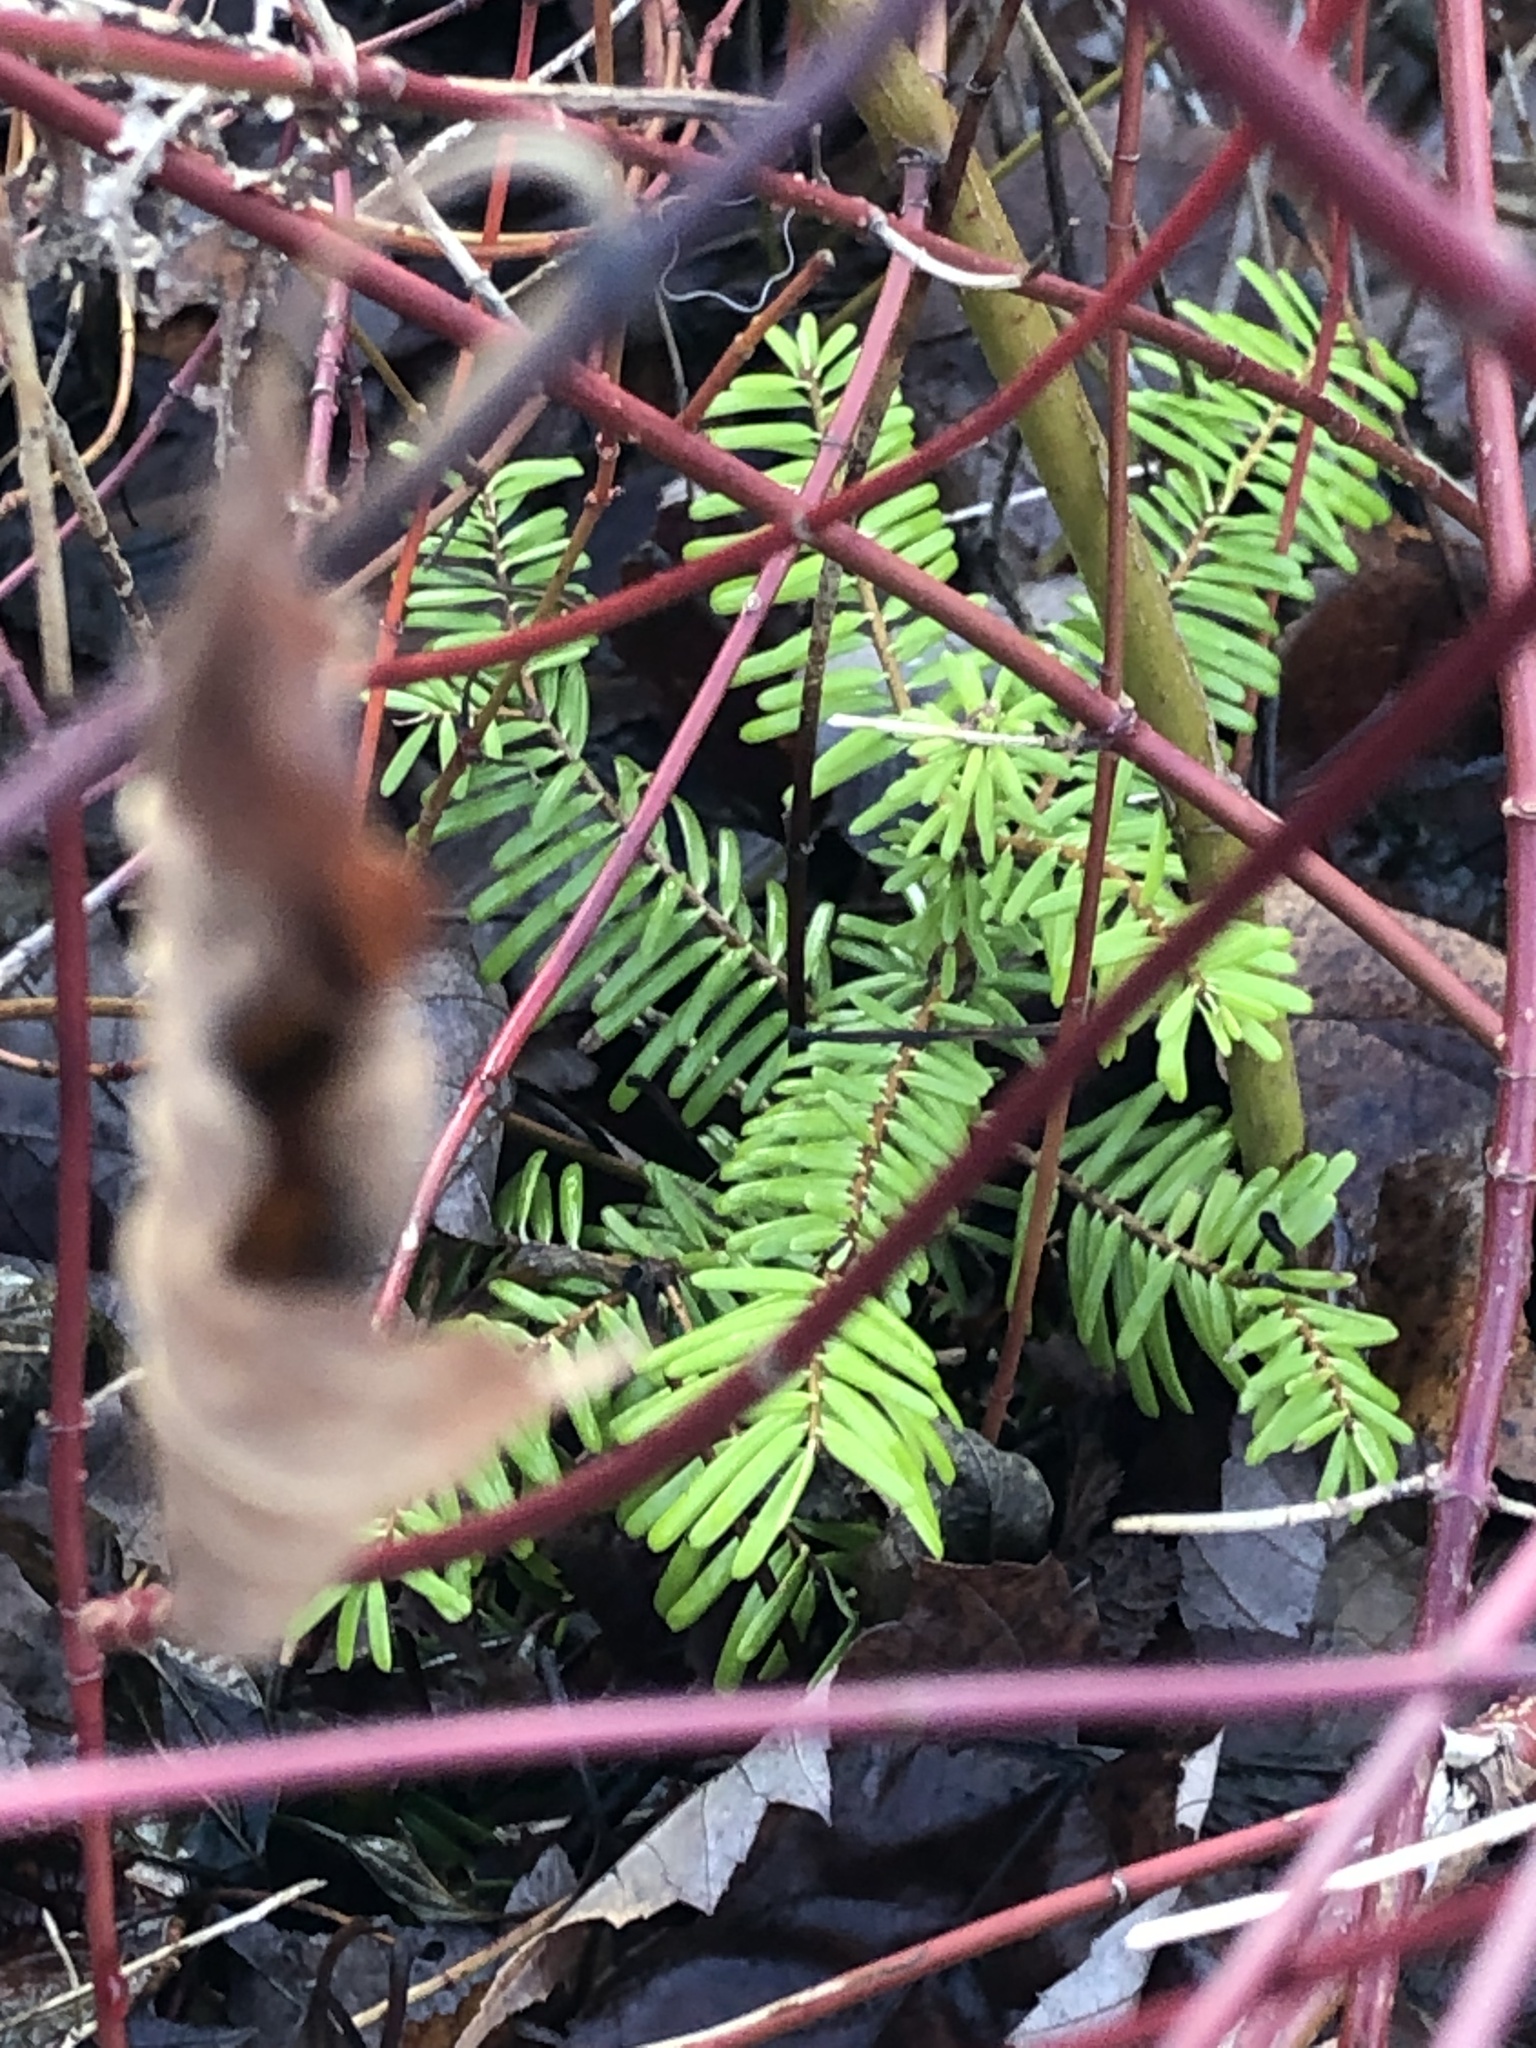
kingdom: Plantae
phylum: Tracheophyta
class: Pinopsida
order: Pinales
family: Pinaceae
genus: Abies
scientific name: Abies grandis
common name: Giant fir
